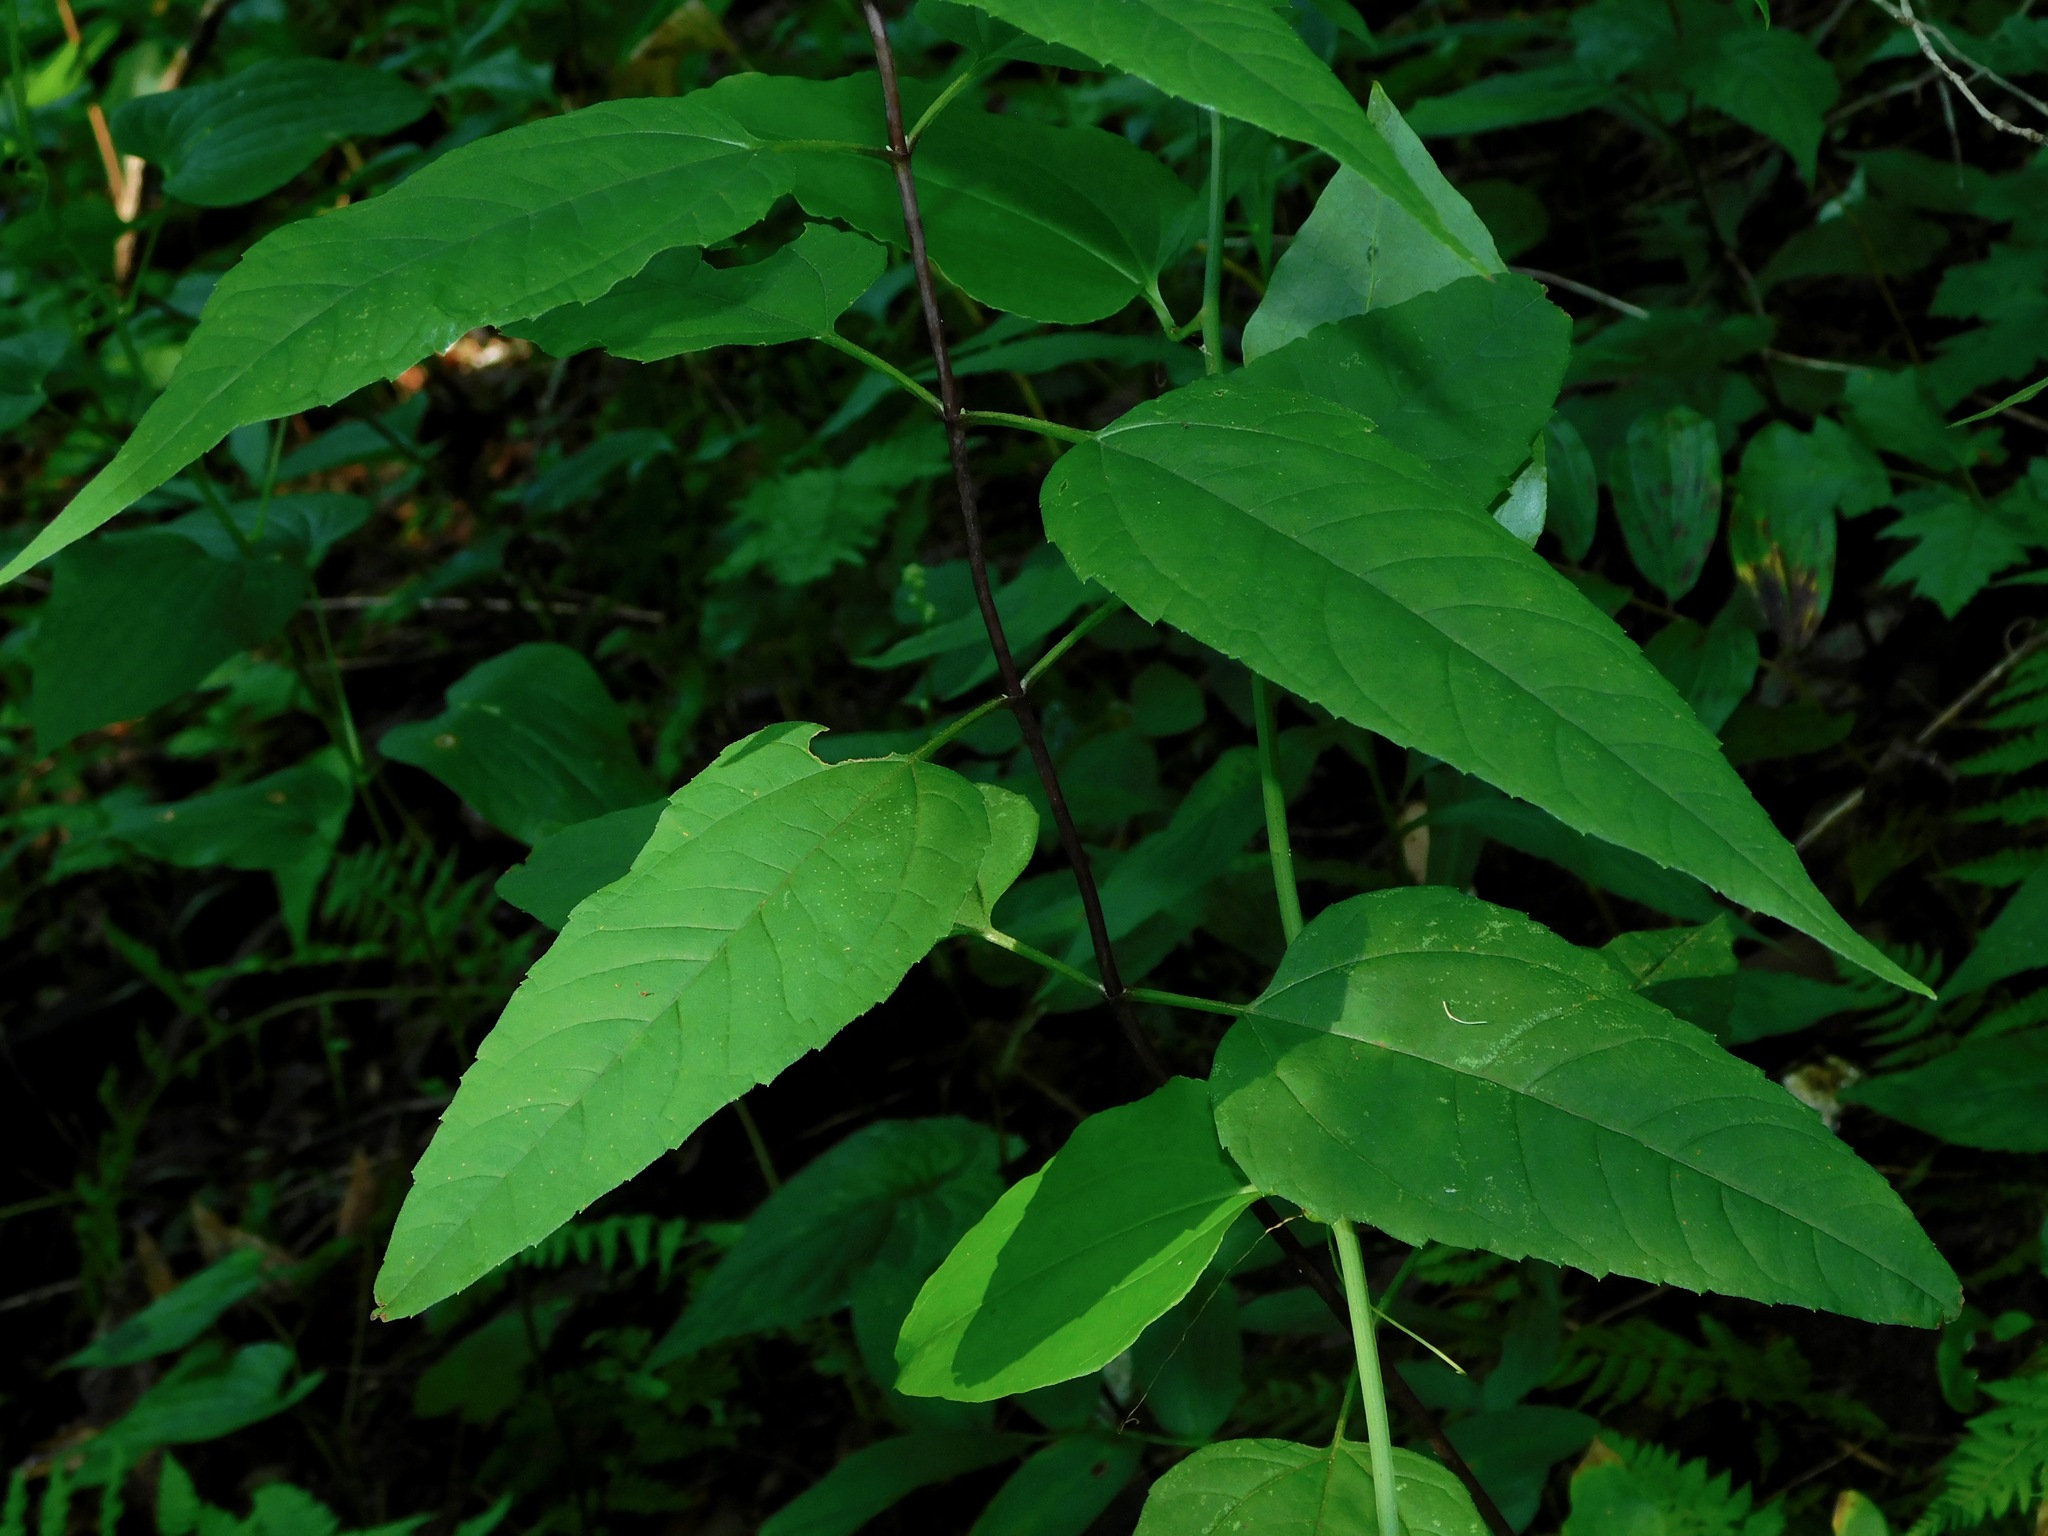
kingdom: Plantae
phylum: Tracheophyta
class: Magnoliopsida
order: Asterales
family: Asteraceae
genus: Helianthus
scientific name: Helianthus decapetalus
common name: Thin-leaved sunflower
